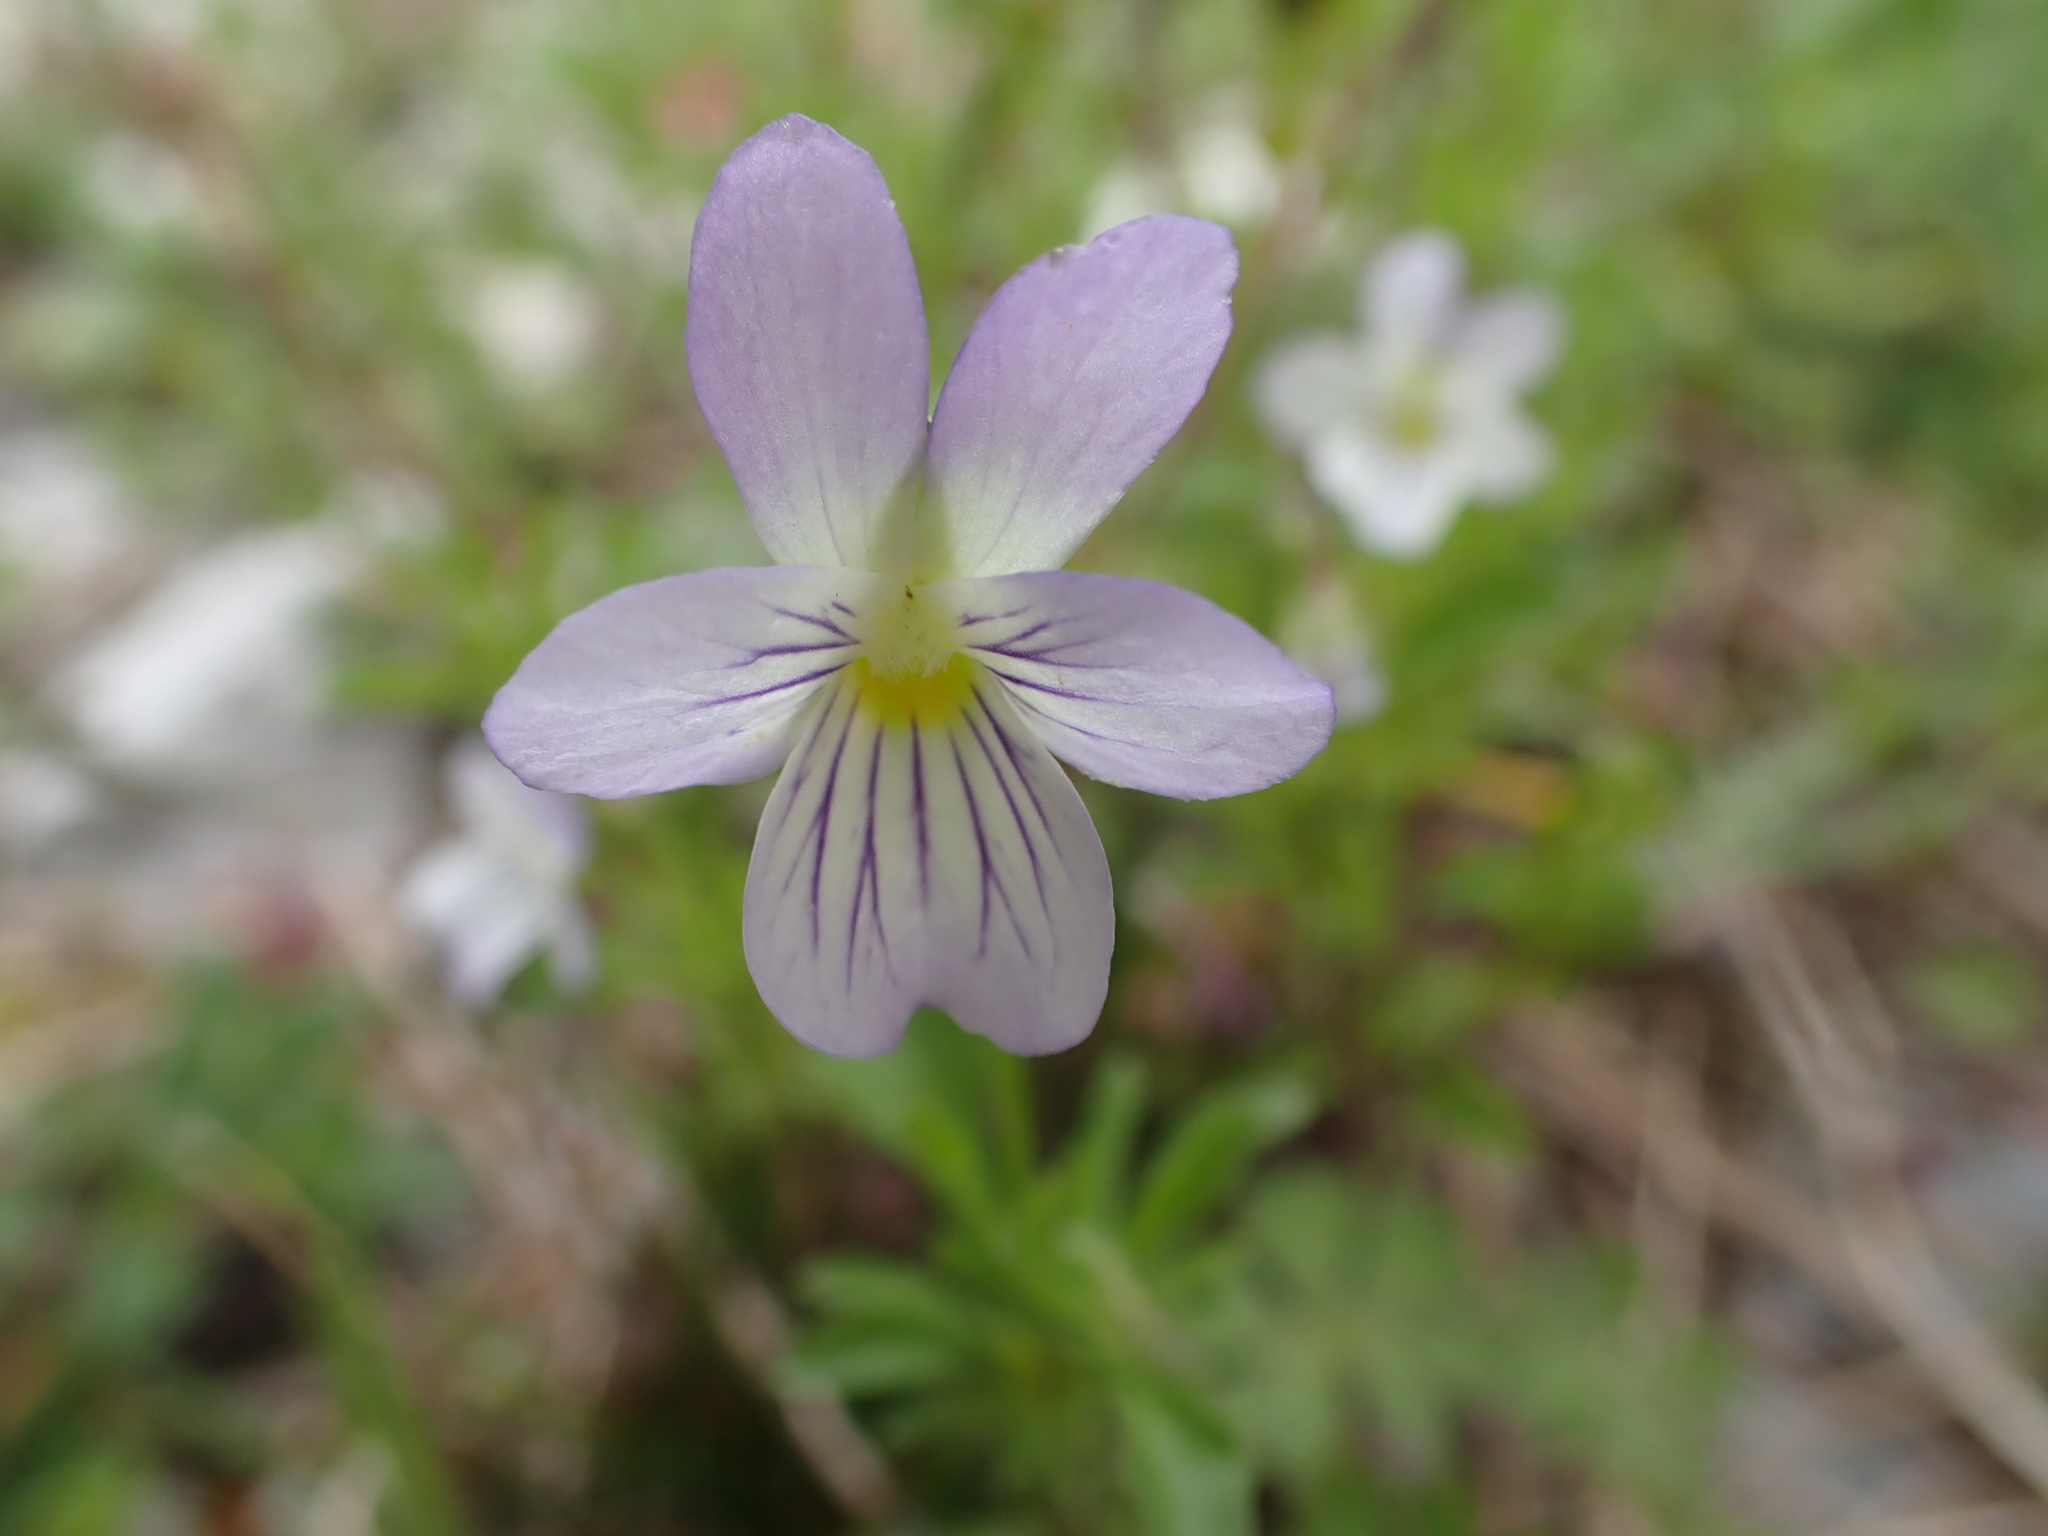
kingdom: Plantae
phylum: Tracheophyta
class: Magnoliopsida
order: Malpighiales
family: Violaceae
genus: Viola
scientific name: Viola rafinesquei
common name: American field pansy
